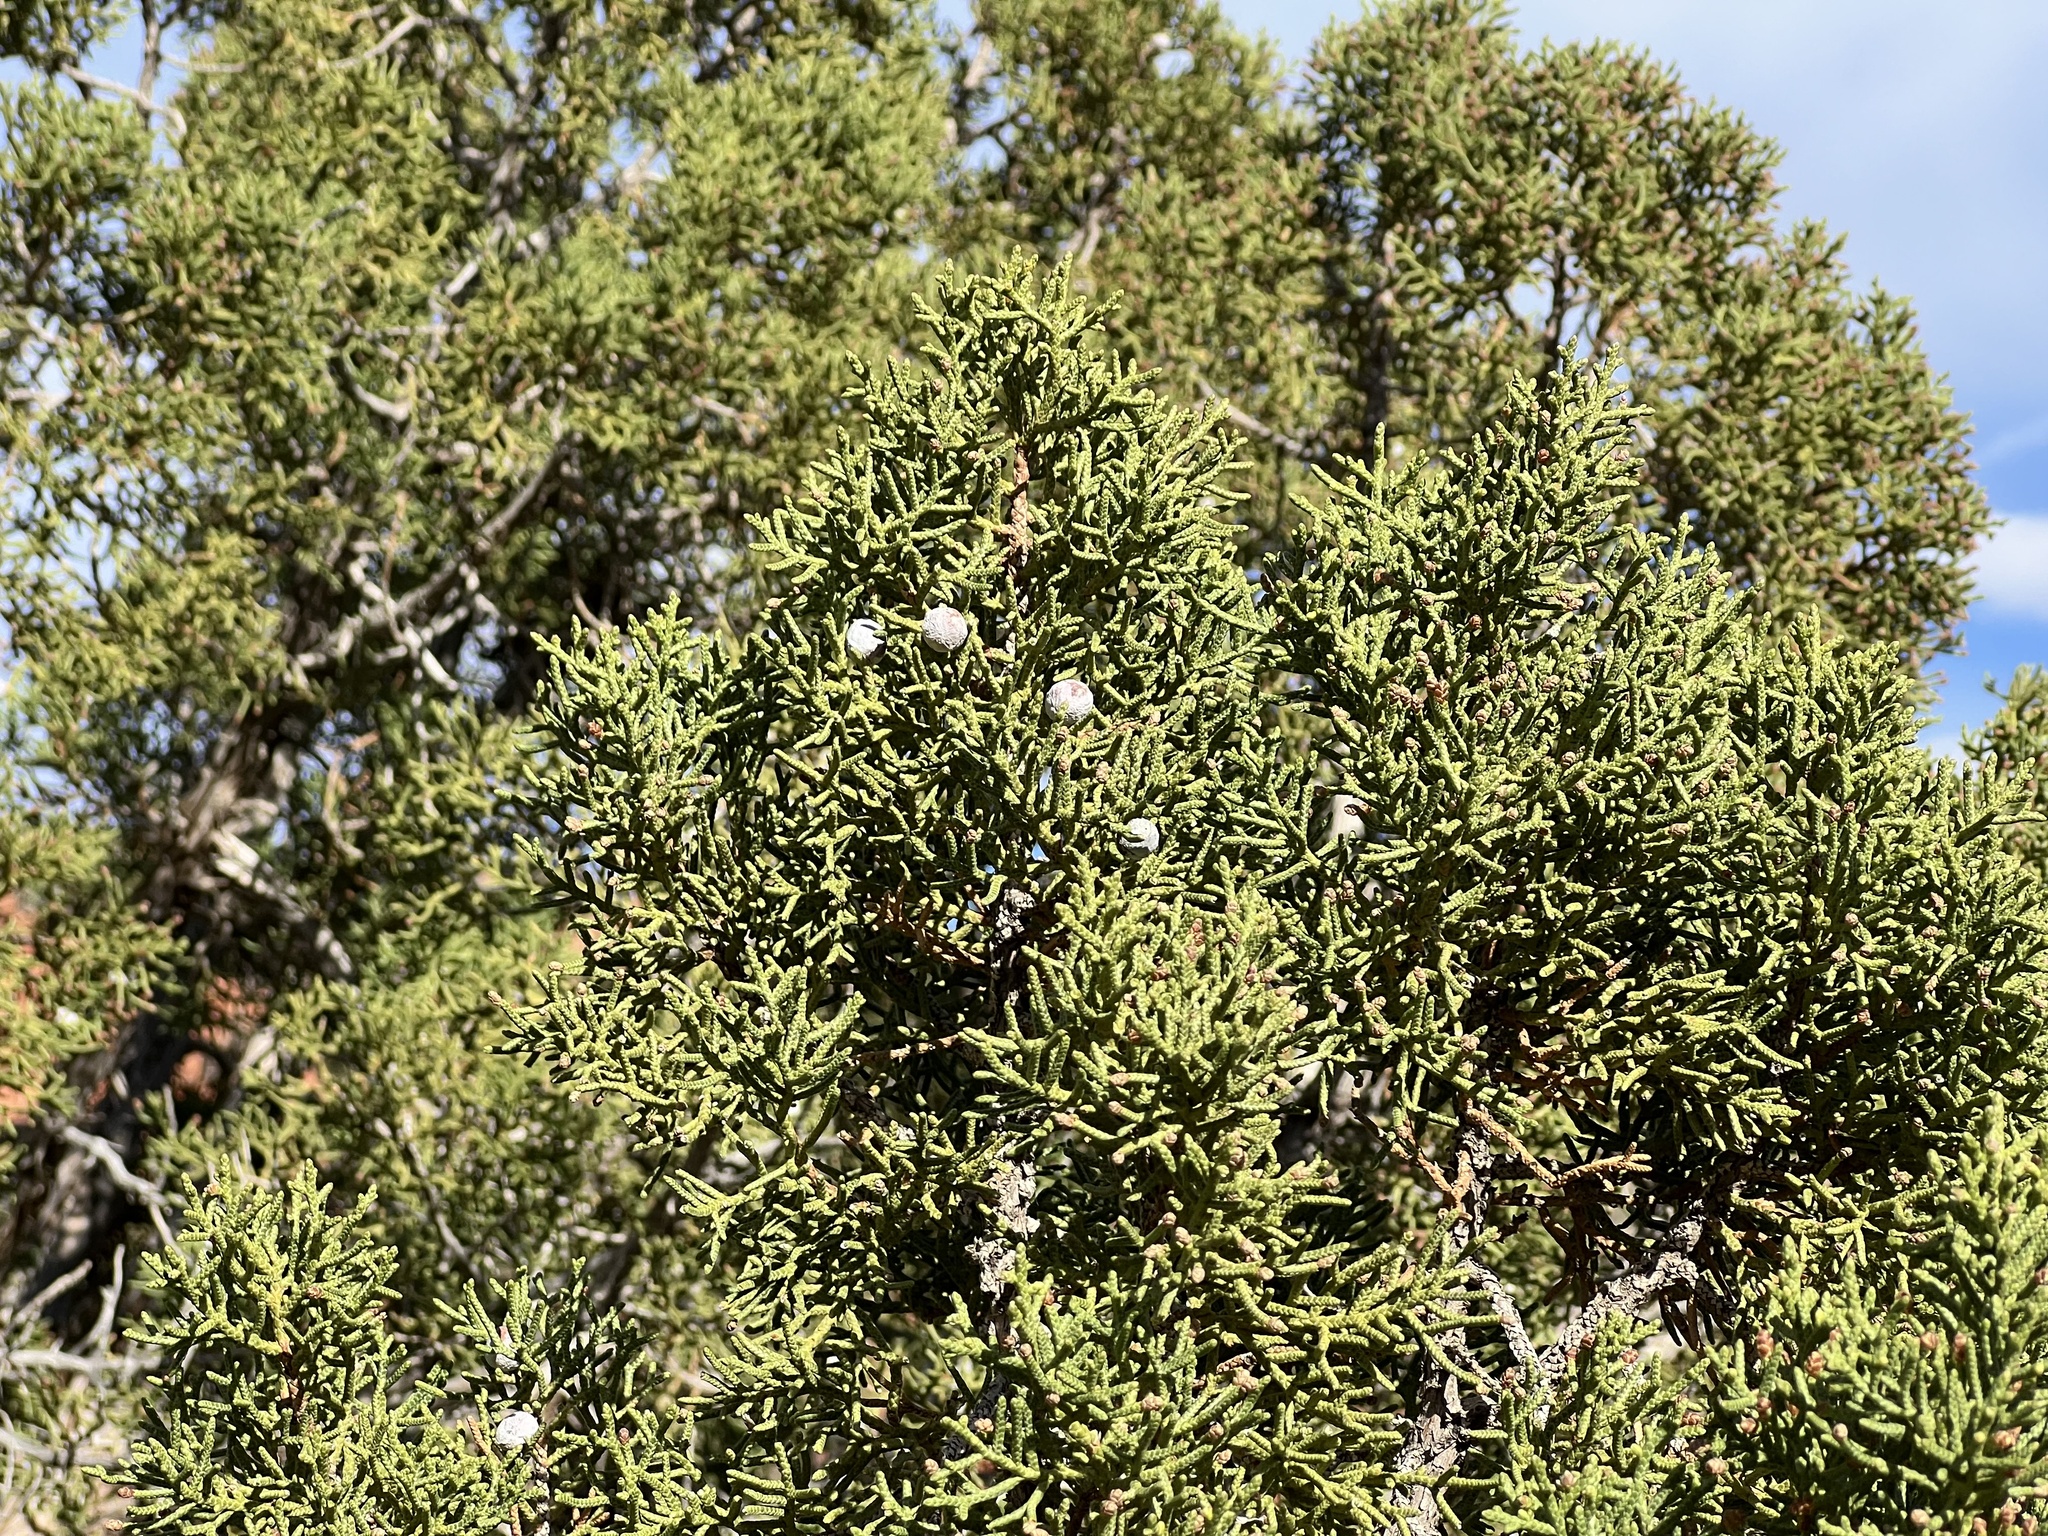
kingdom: Plantae
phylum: Tracheophyta
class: Pinopsida
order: Pinales
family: Cupressaceae
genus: Juniperus
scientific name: Juniperus osteosperma
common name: Utah juniper
